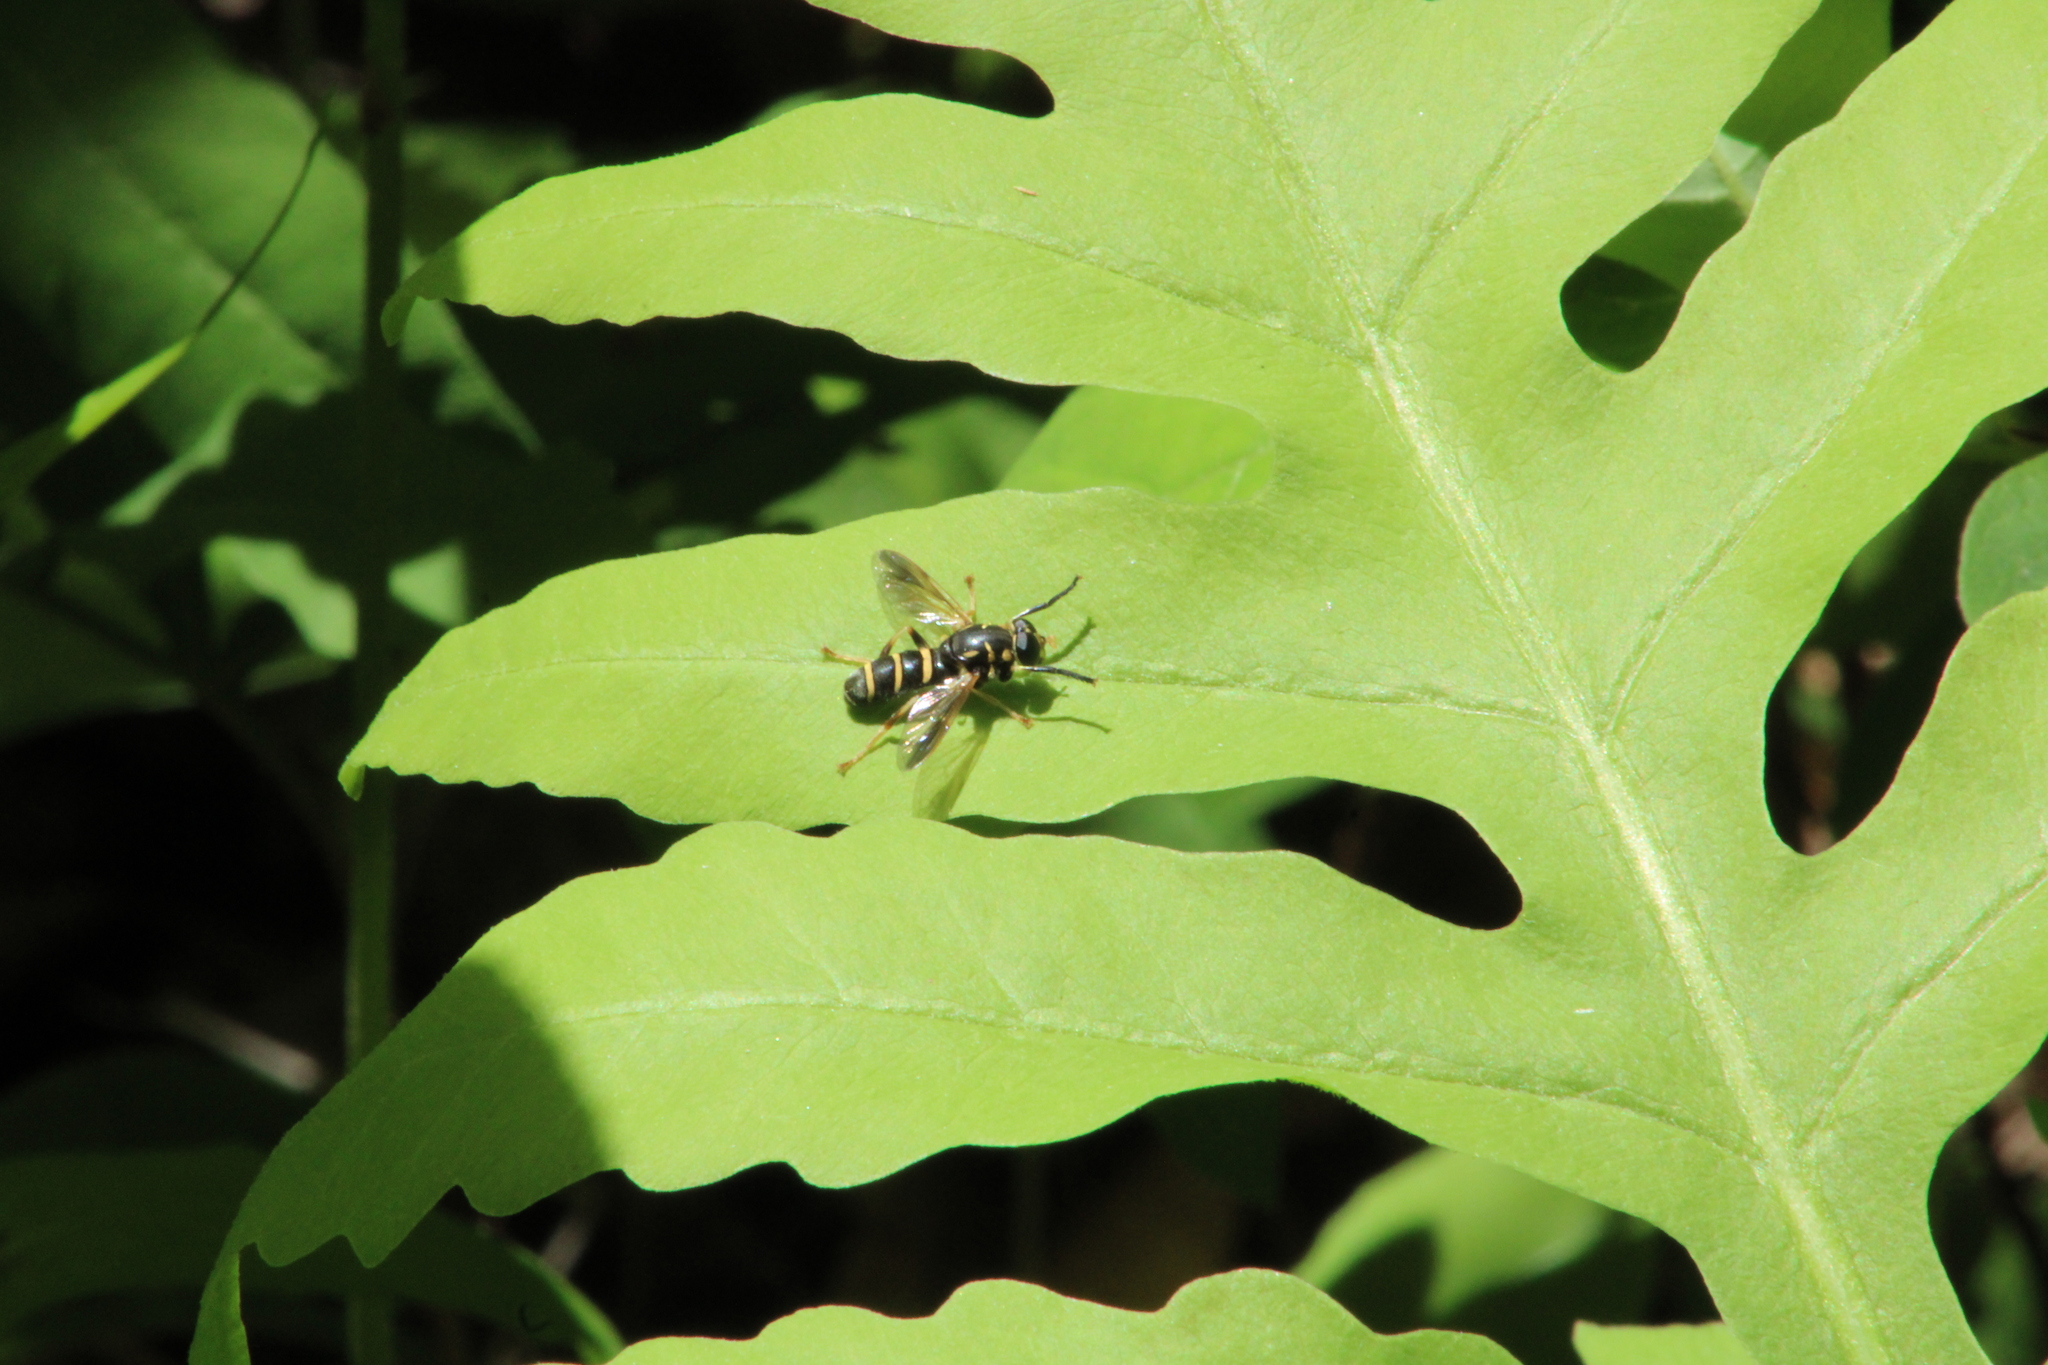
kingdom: Animalia
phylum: Arthropoda
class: Insecta
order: Diptera
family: Syrphidae
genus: Temnostoma
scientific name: Temnostoma
